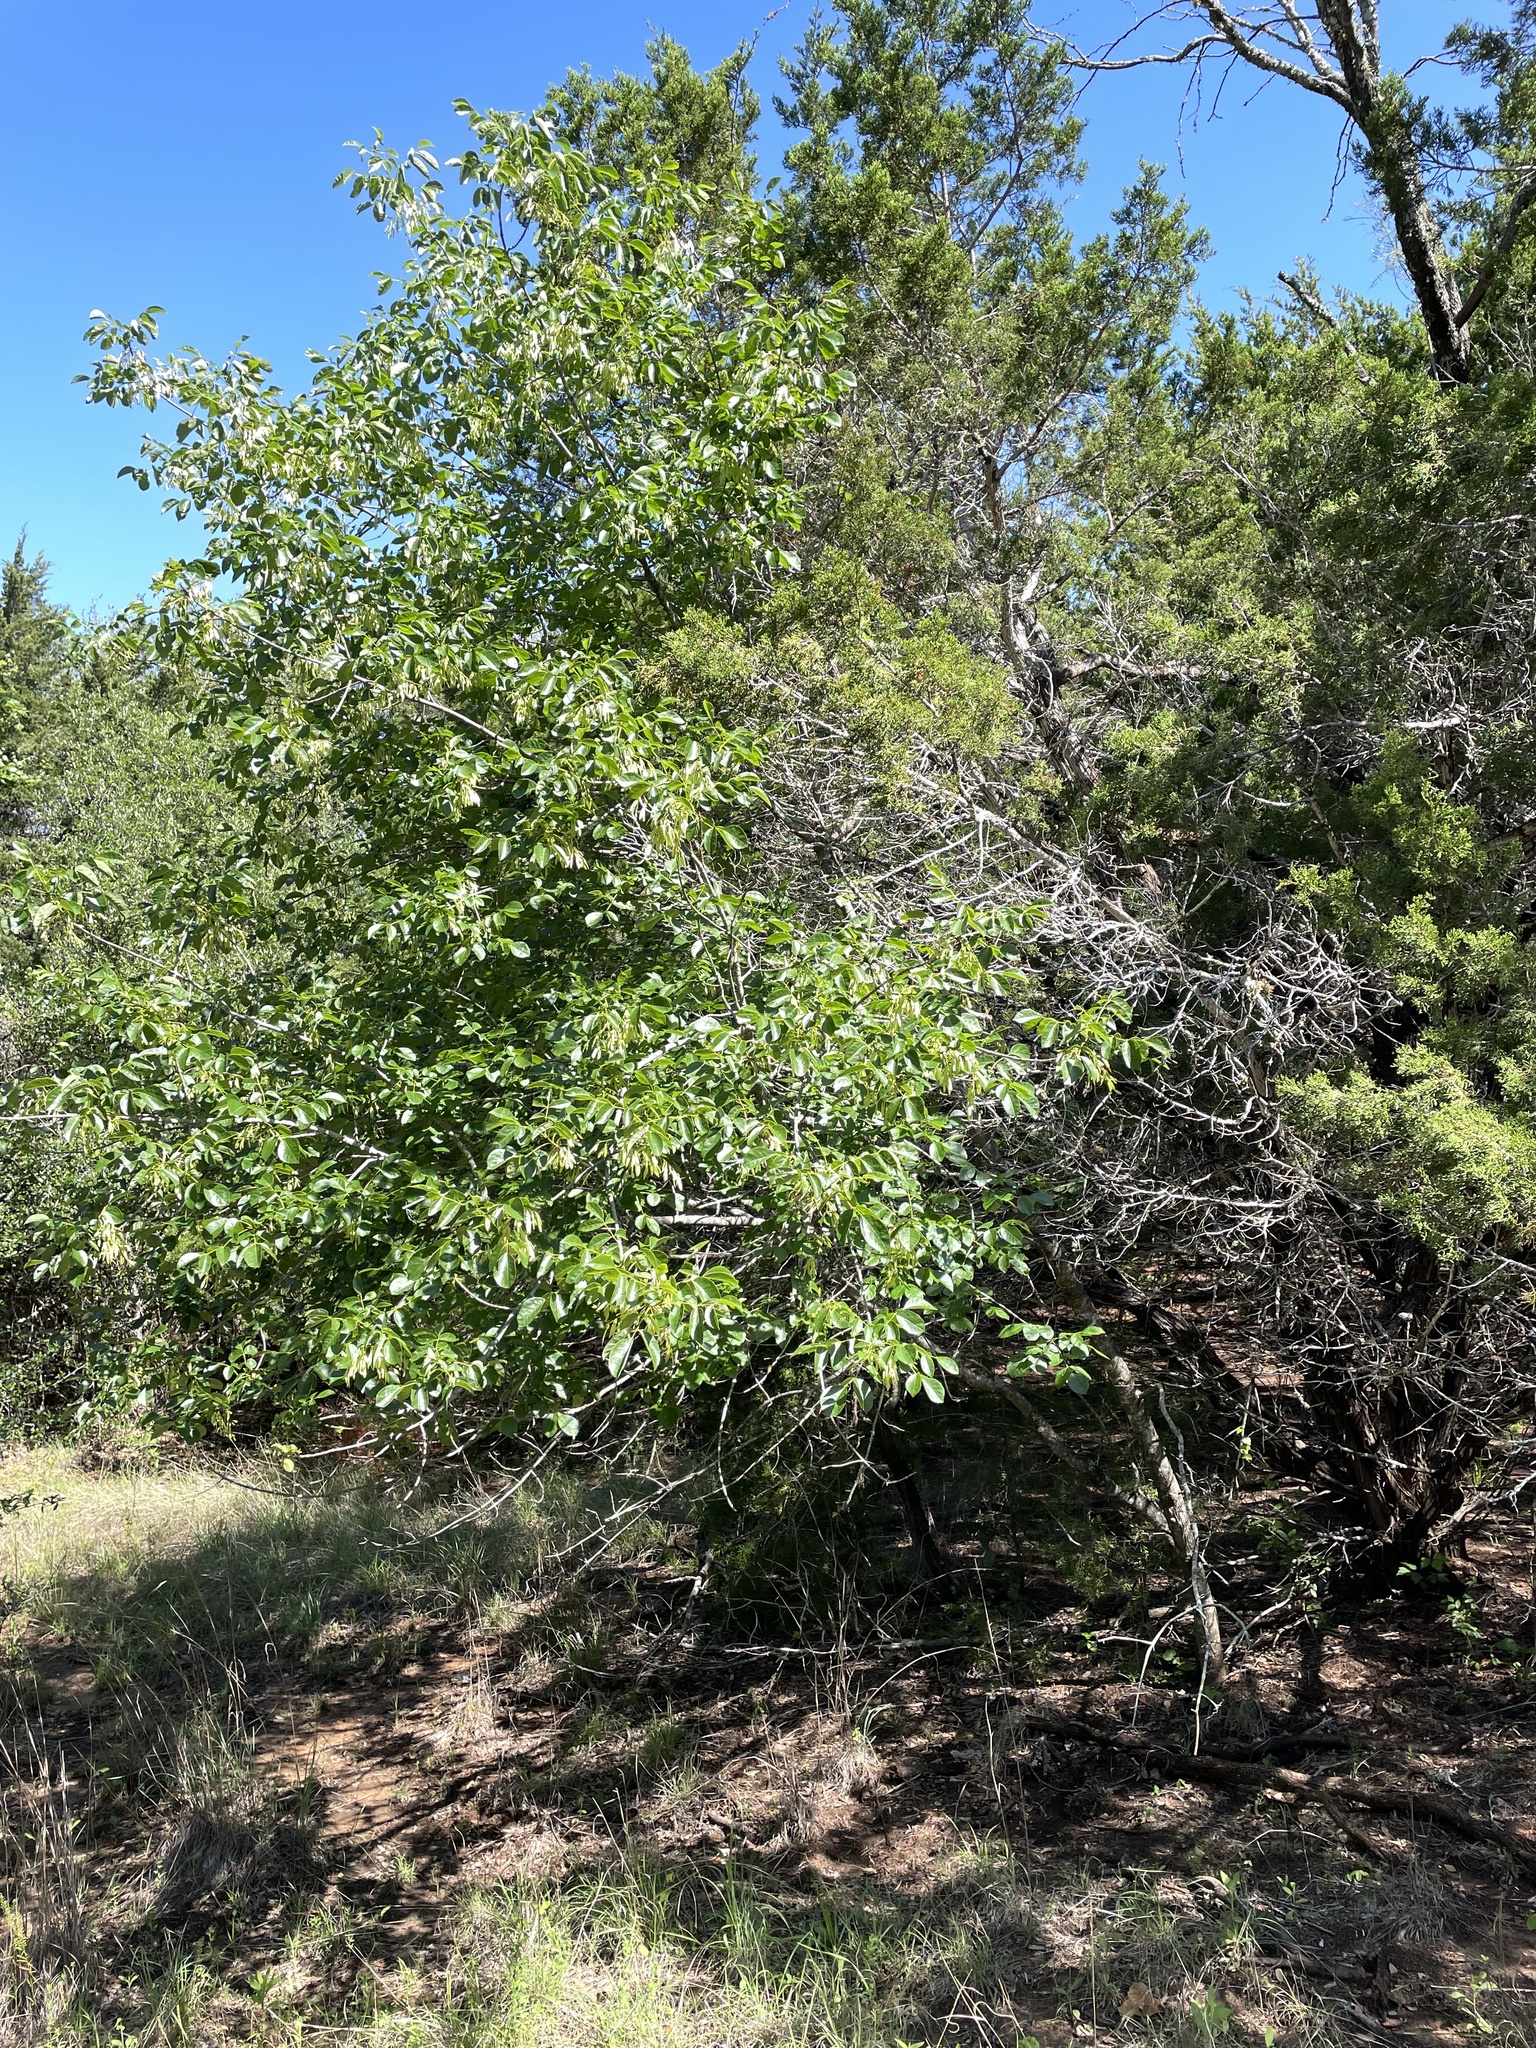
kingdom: Plantae
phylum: Tracheophyta
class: Magnoliopsida
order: Lamiales
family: Oleaceae
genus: Fraxinus
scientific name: Fraxinus albicans
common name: Texas ash
